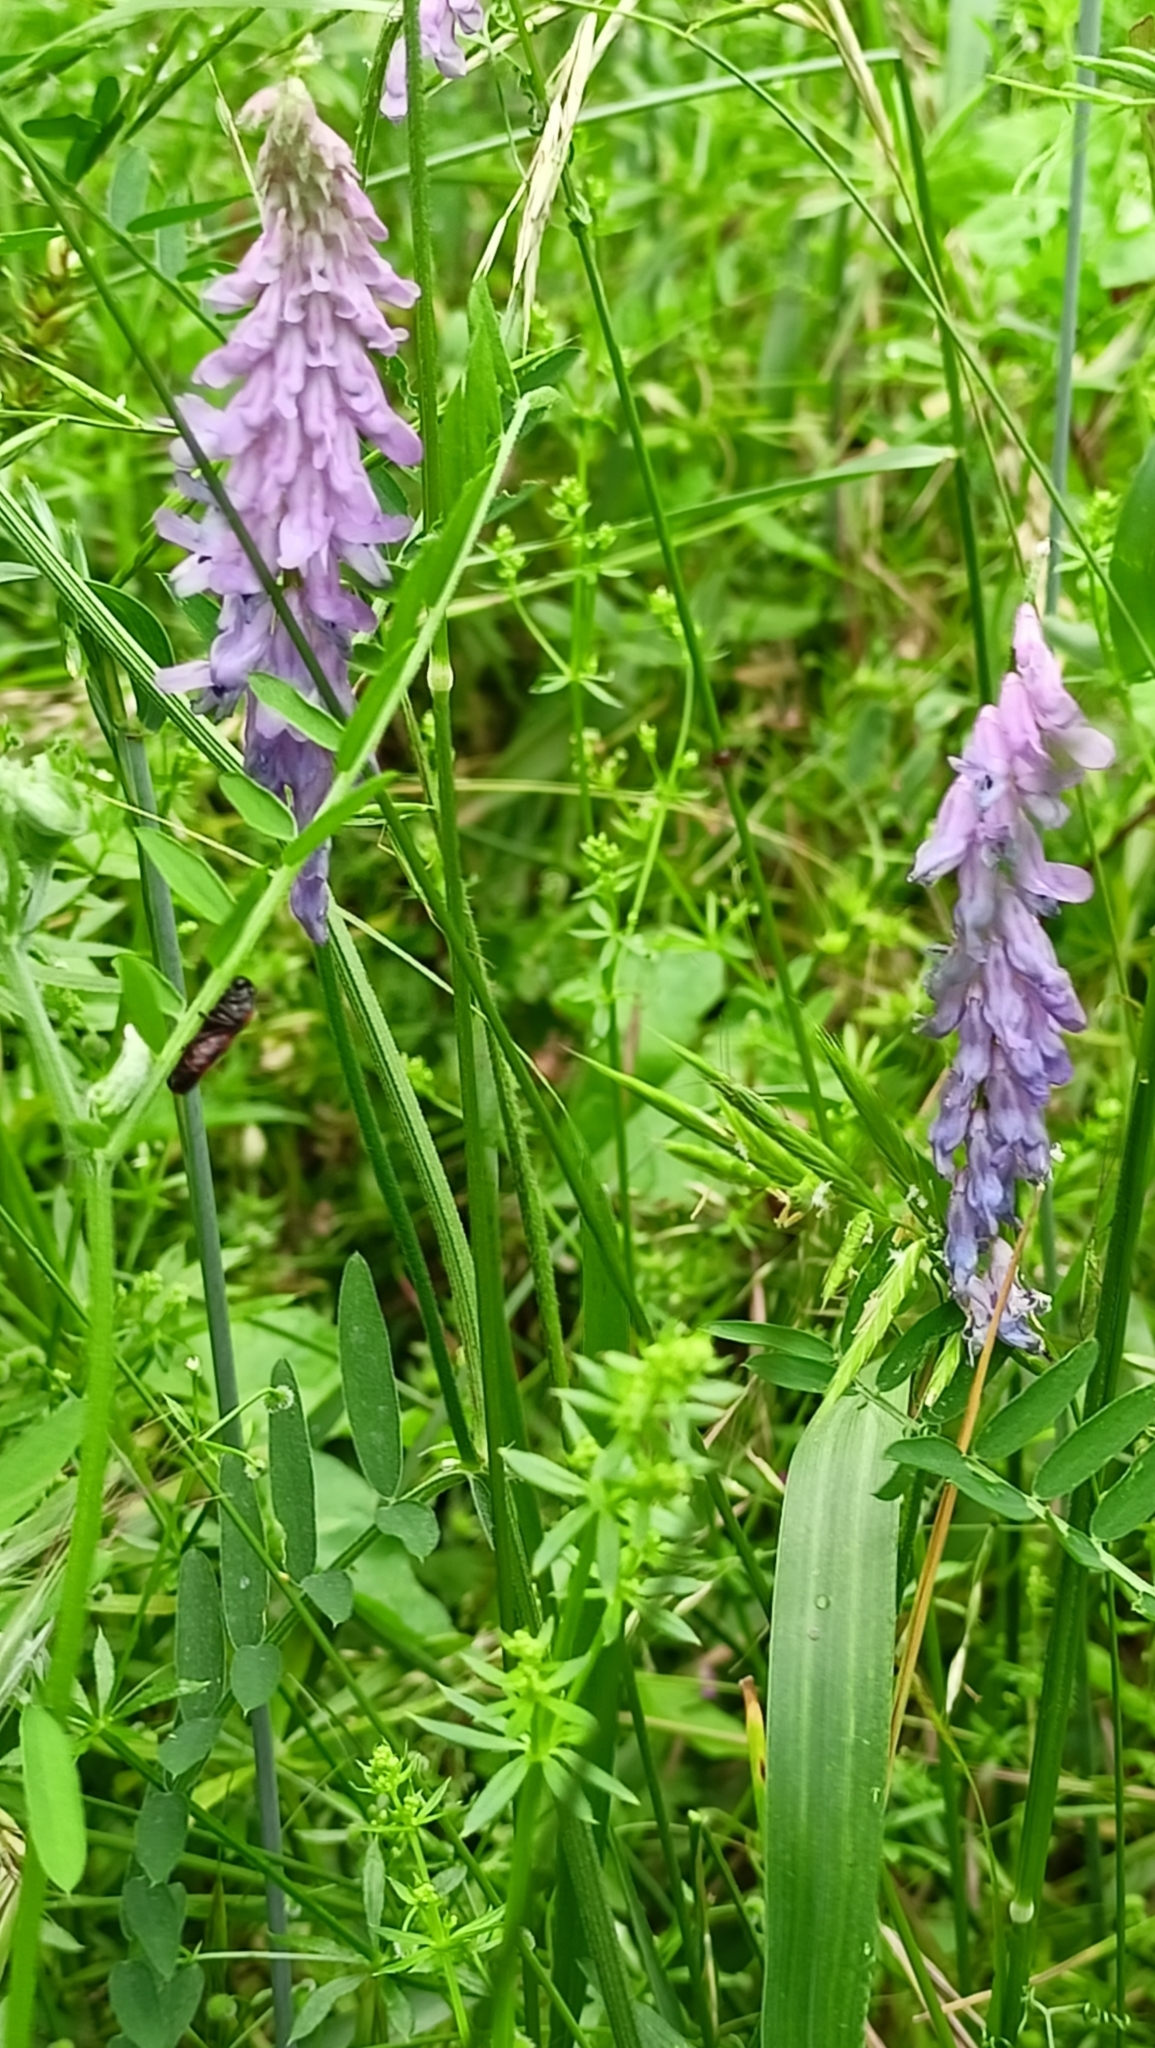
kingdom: Plantae
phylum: Tracheophyta
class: Magnoliopsida
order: Fabales
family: Fabaceae
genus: Vicia
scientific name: Vicia cracca
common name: Bird vetch
